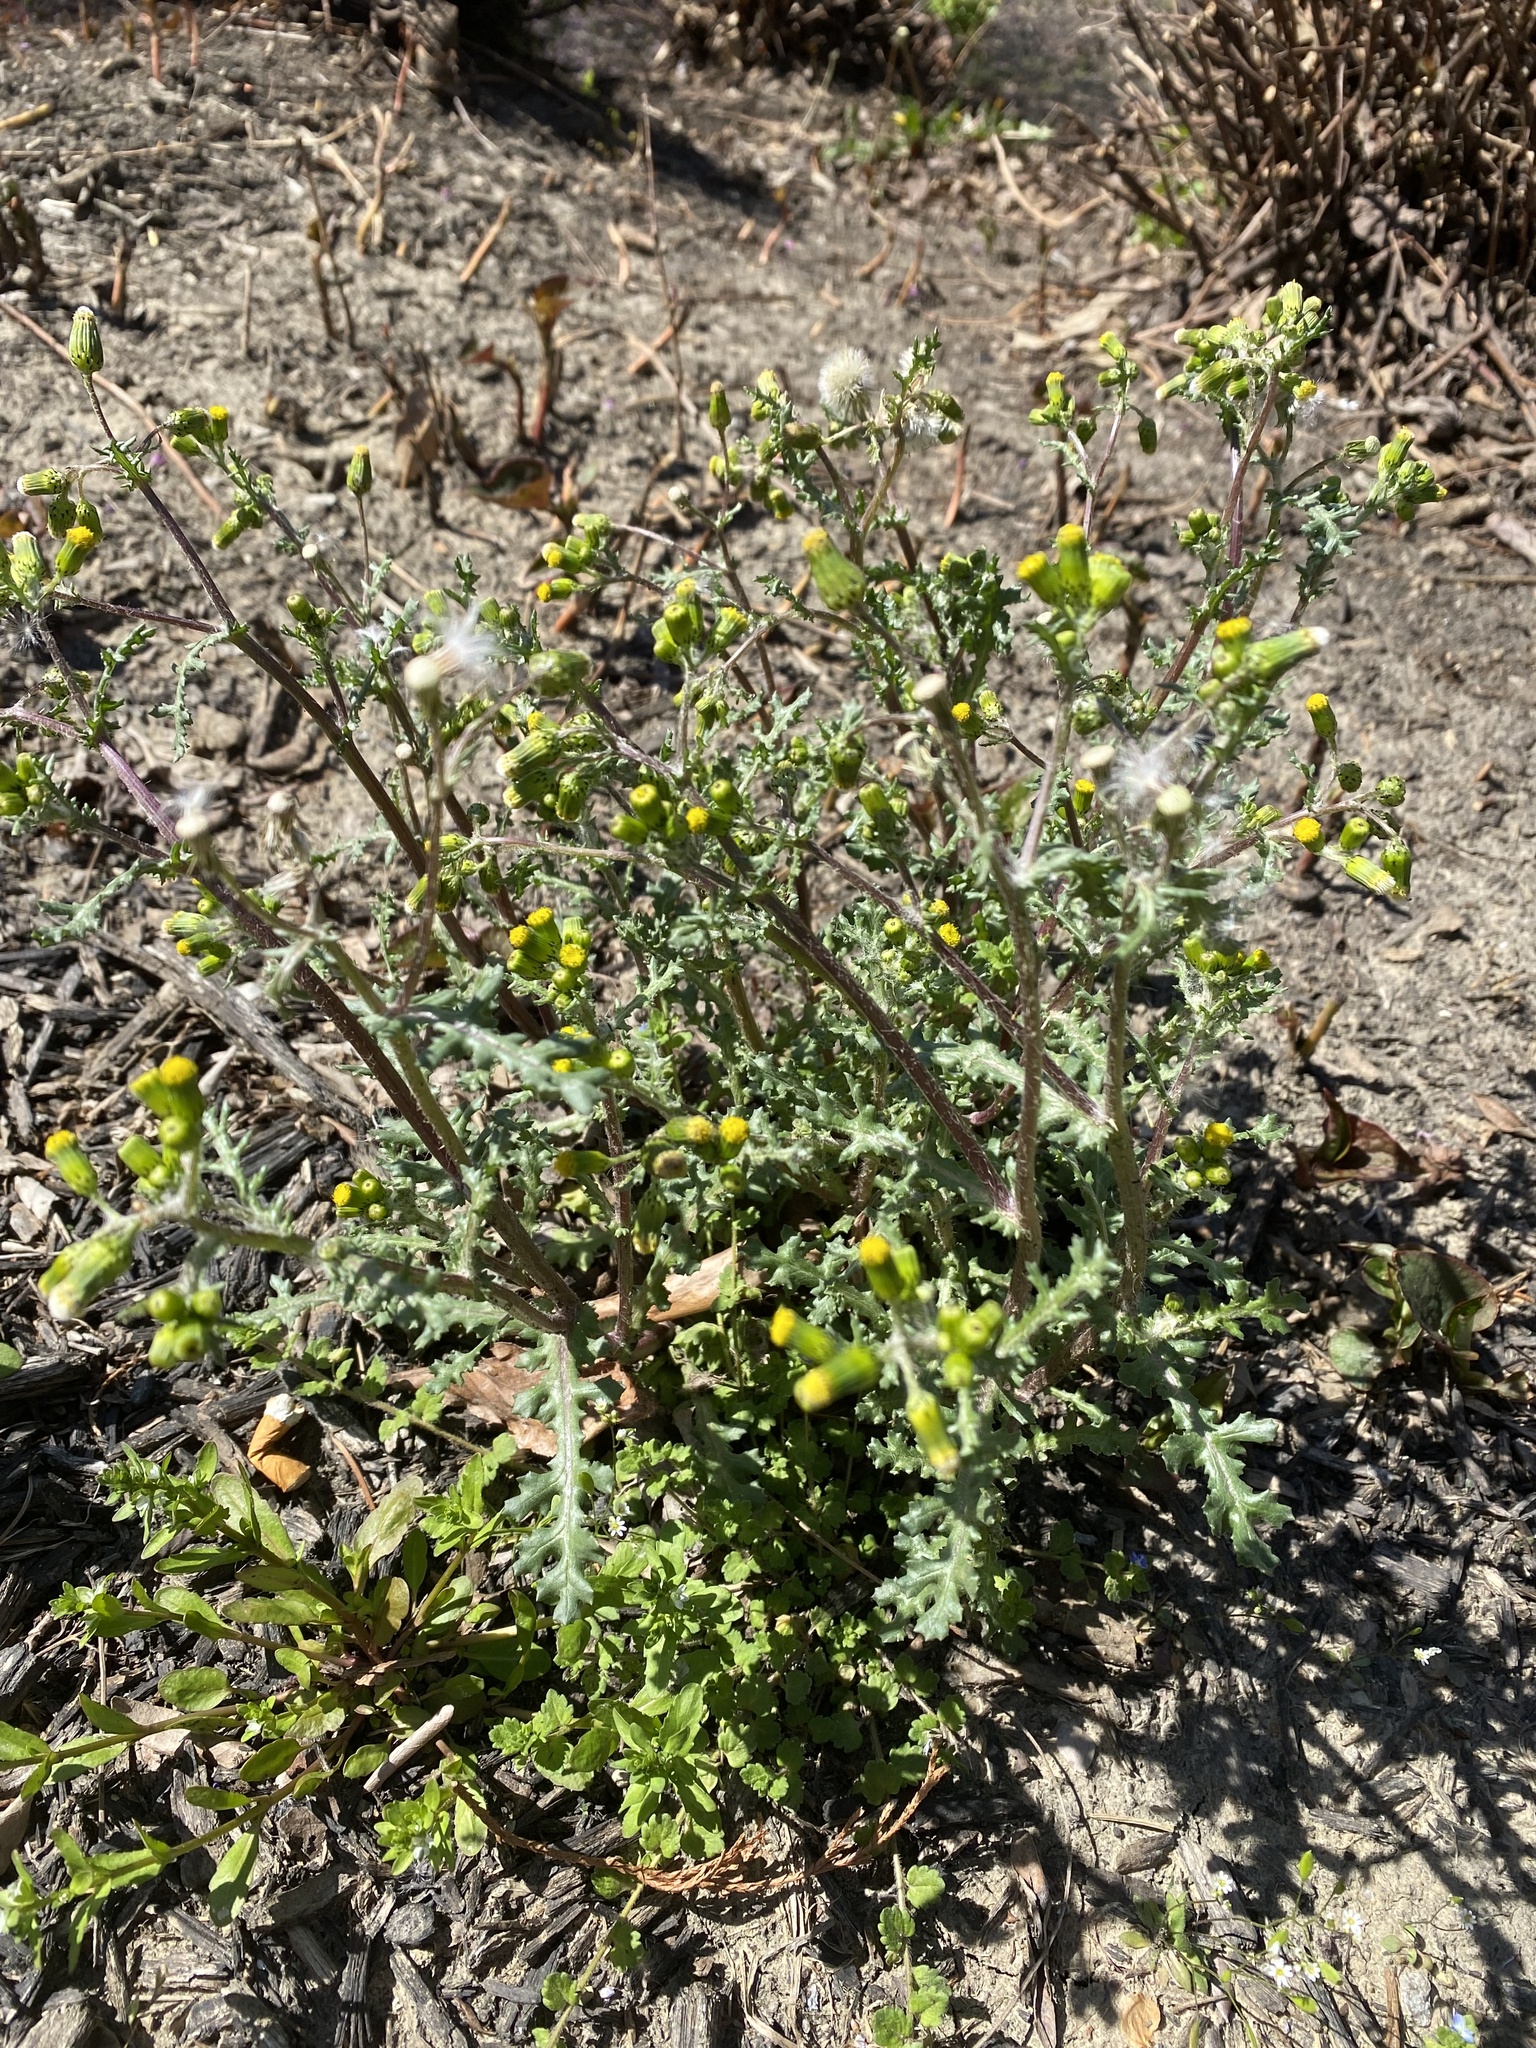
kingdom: Plantae
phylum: Tracheophyta
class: Magnoliopsida
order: Asterales
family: Asteraceae
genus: Senecio
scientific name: Senecio vulgaris
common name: Old-man-in-the-spring
